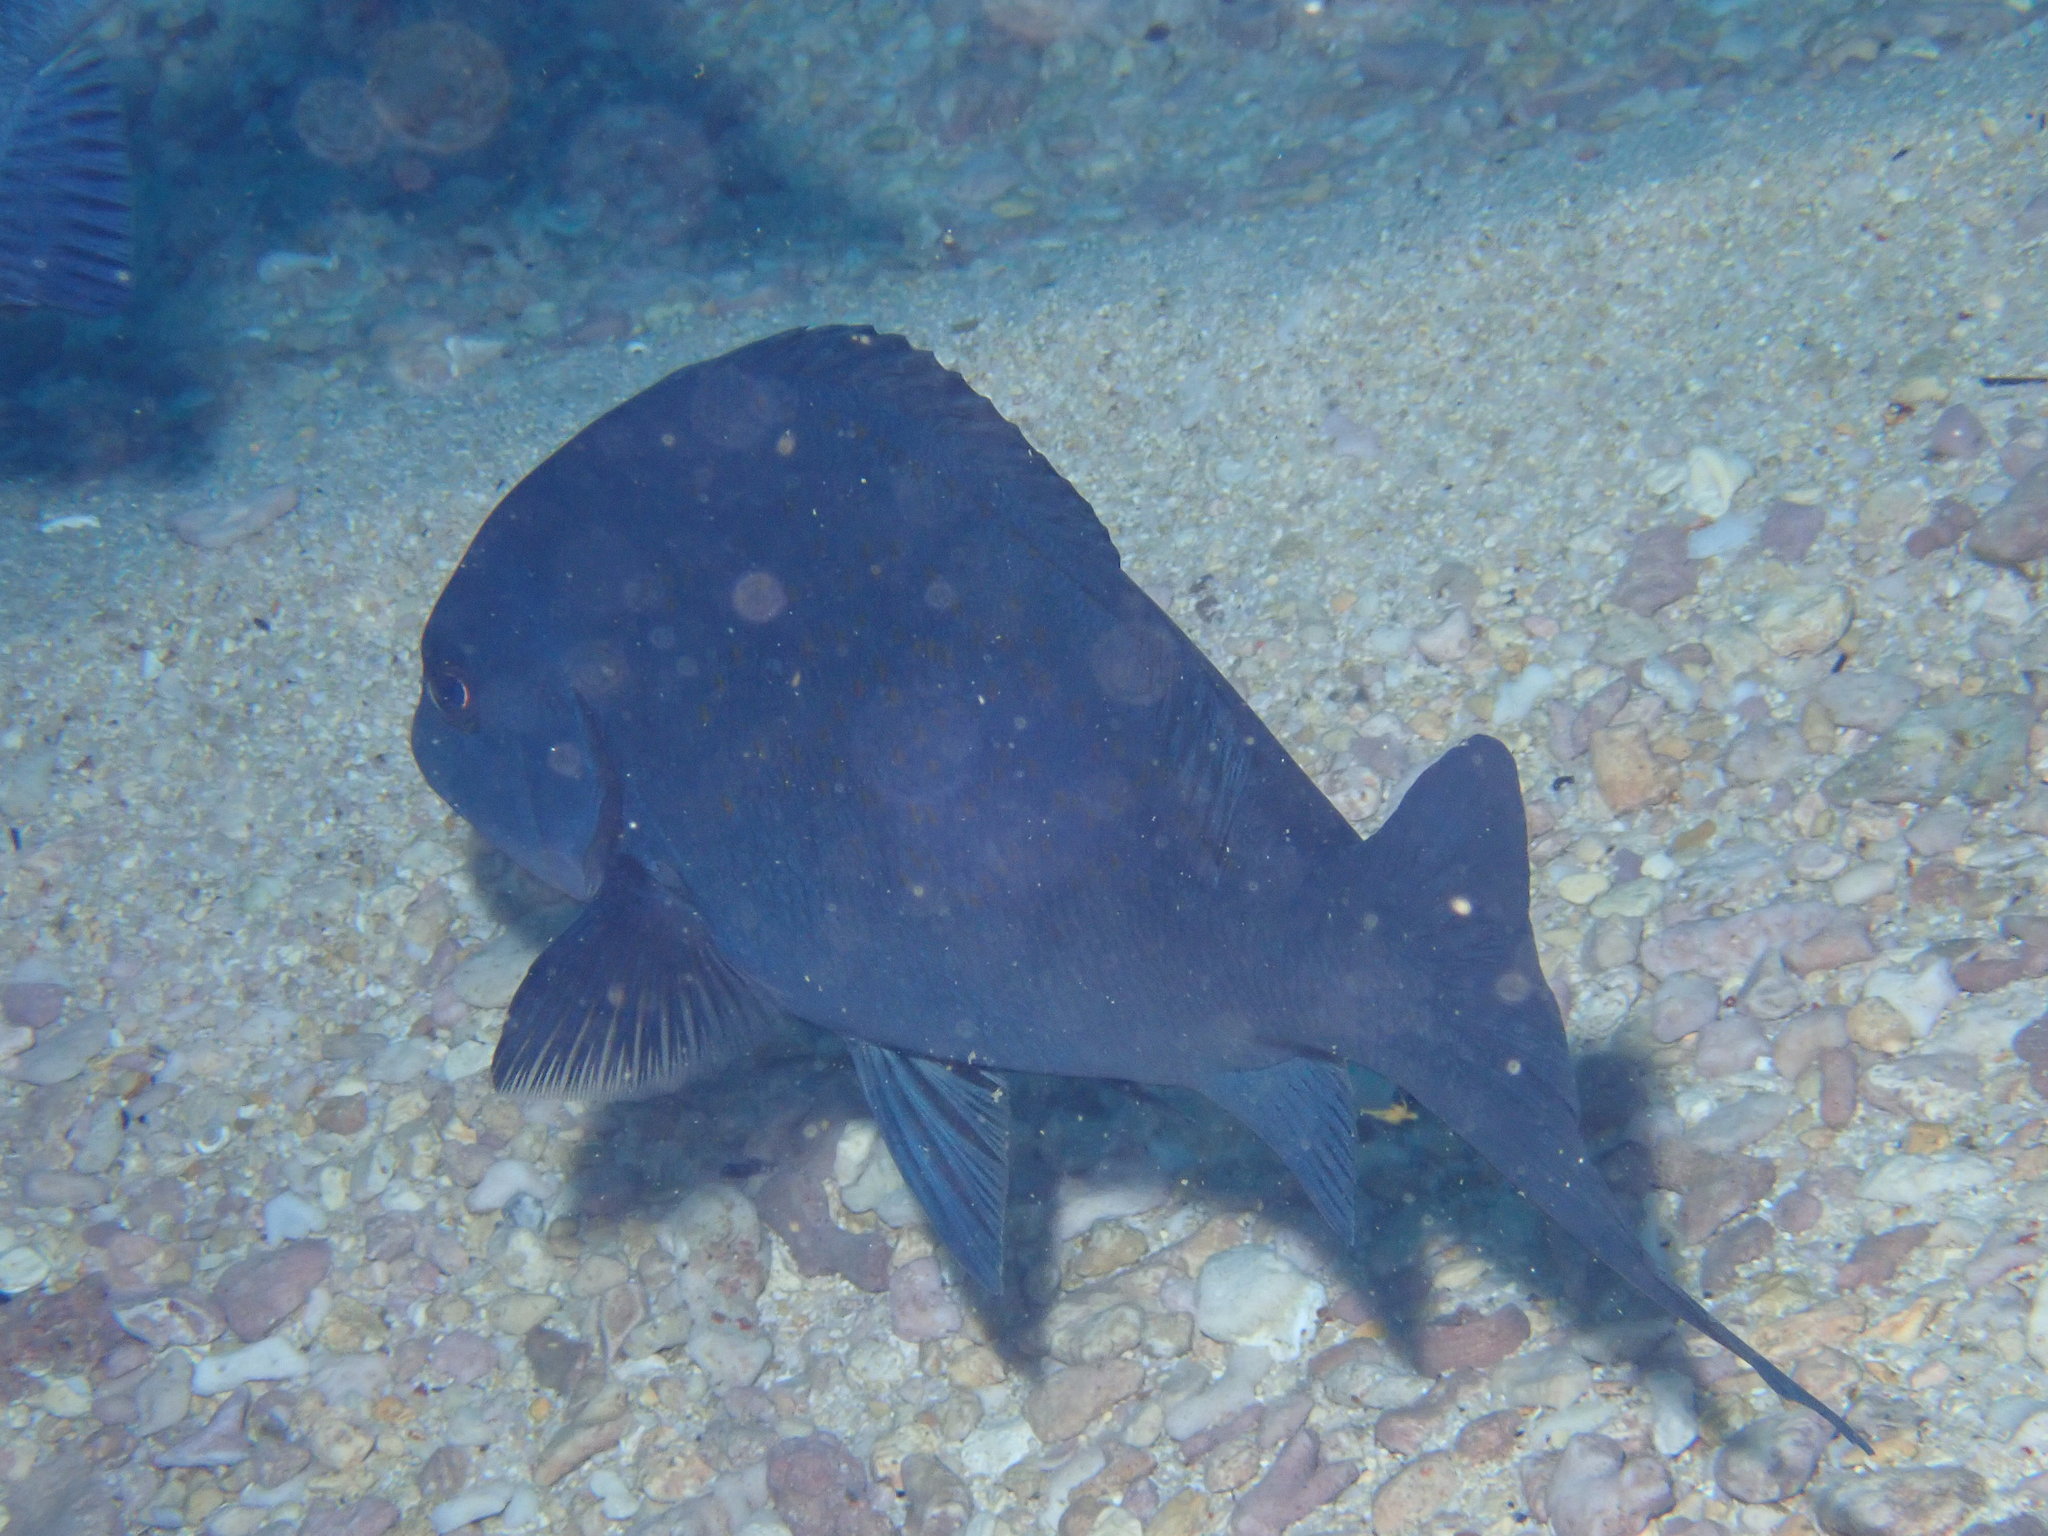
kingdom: Animalia
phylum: Chordata
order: Perciformes
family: Kyphosidae
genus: Girella
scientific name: Girella cyanea
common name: Bluefish
